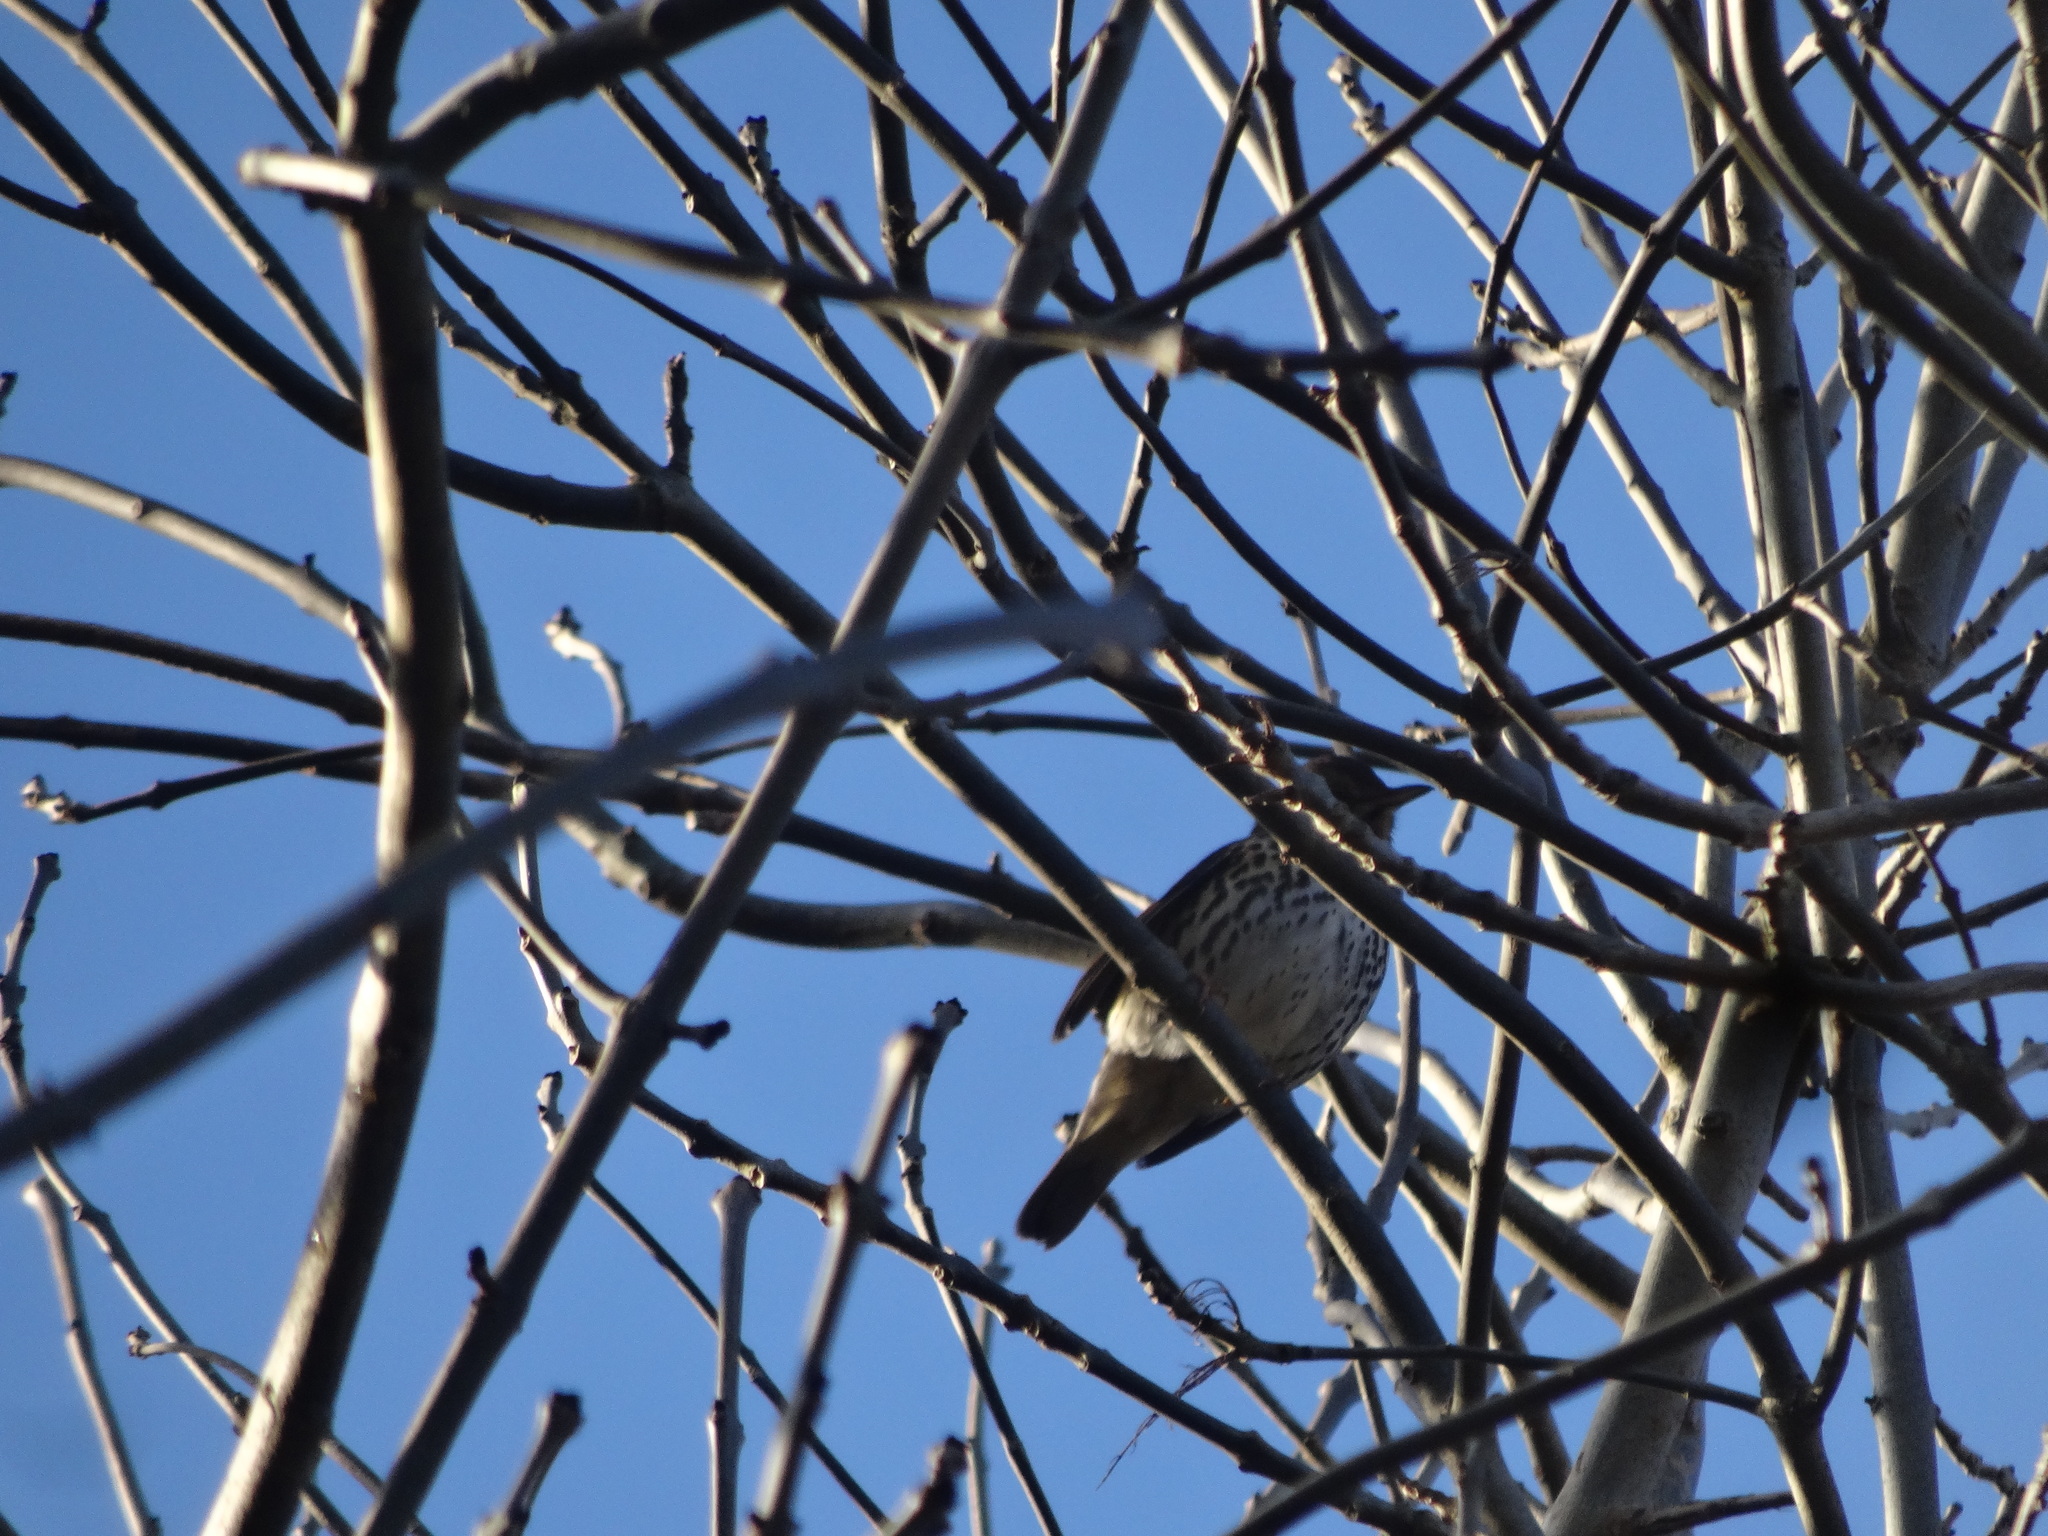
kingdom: Animalia
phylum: Chordata
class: Aves
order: Passeriformes
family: Turdidae
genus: Turdus
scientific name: Turdus philomelos
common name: Song thrush
